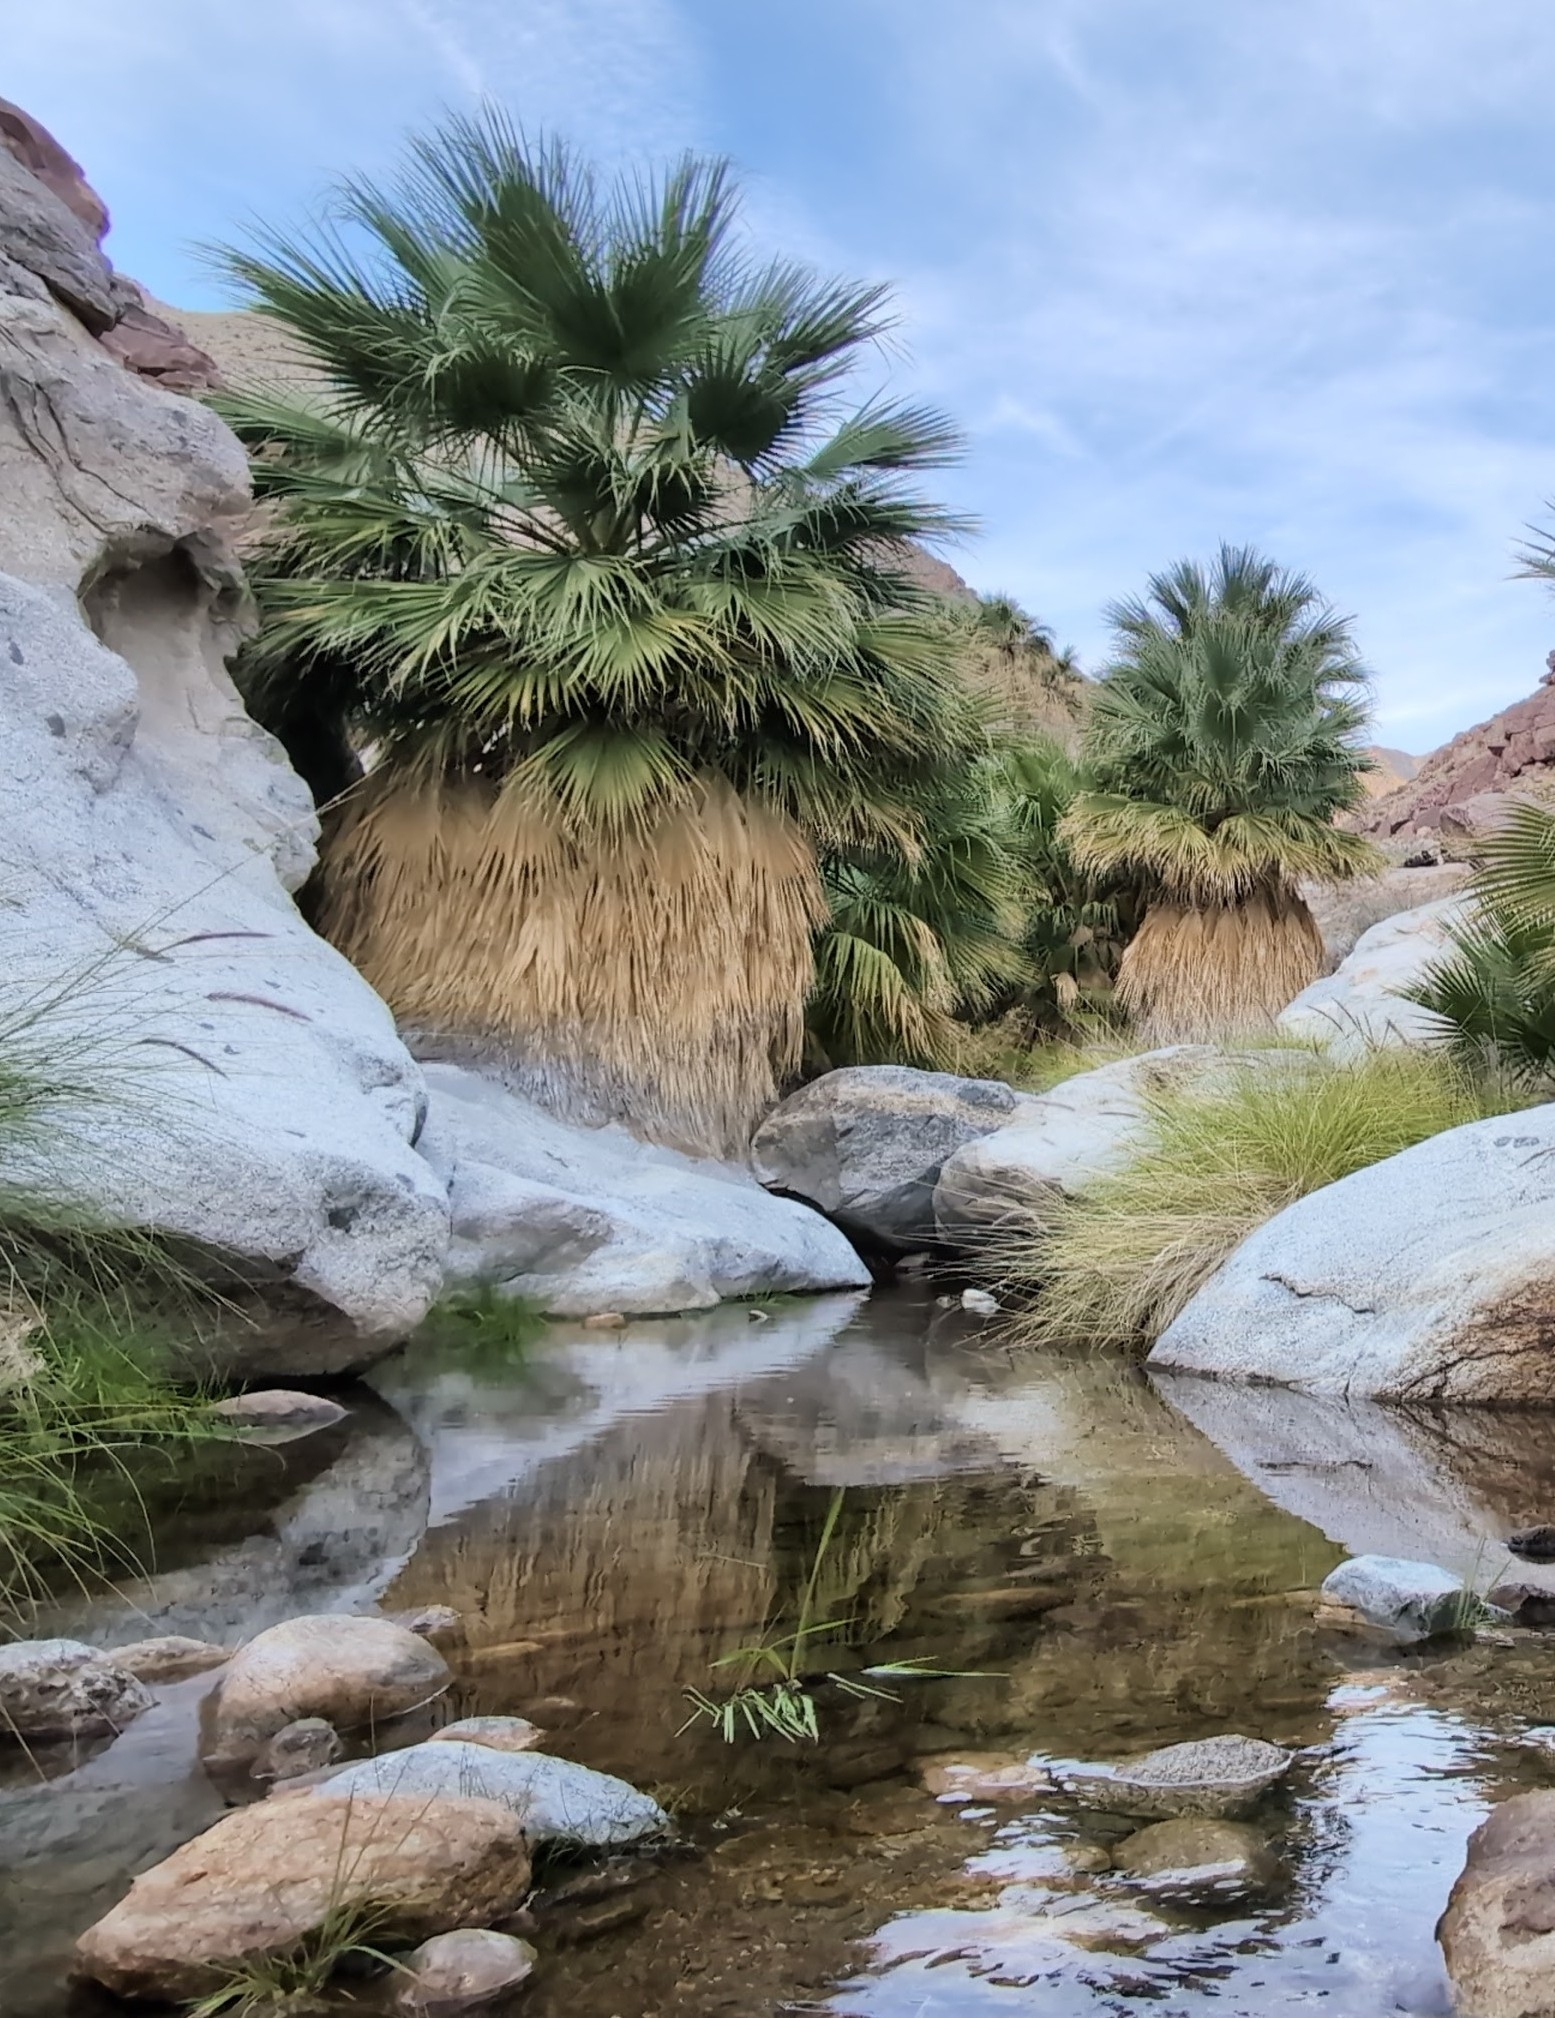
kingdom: Plantae
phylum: Tracheophyta
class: Liliopsida
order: Arecales
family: Arecaceae
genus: Washingtonia
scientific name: Washingtonia filifera
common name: California fan palm
